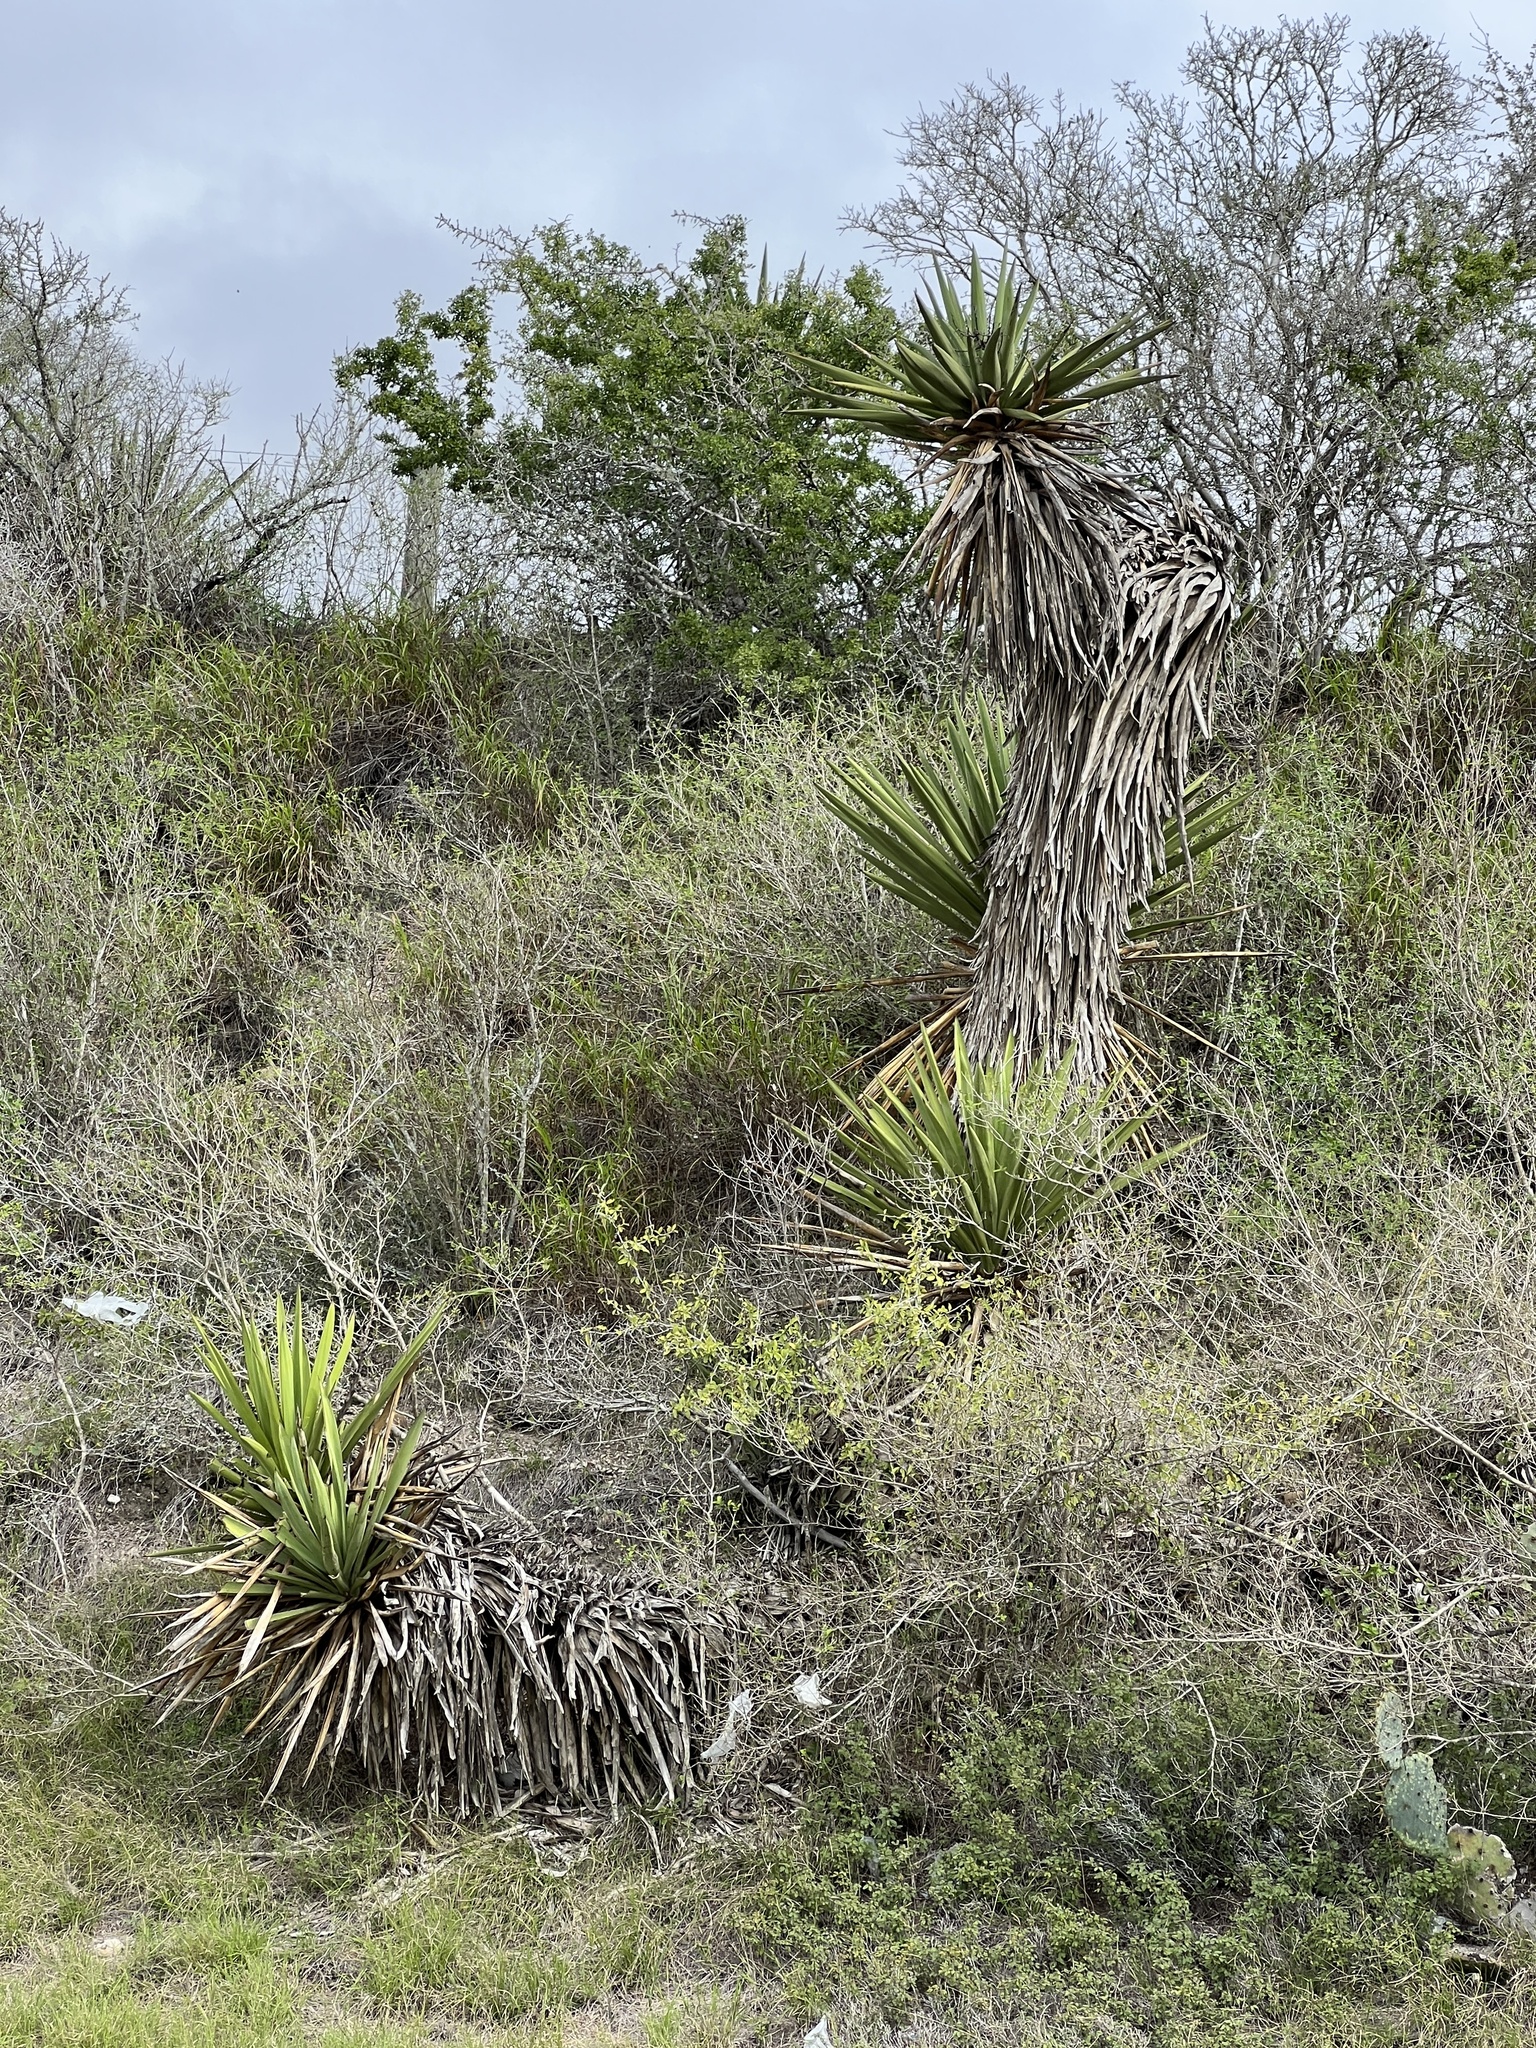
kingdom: Plantae
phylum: Tracheophyta
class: Liliopsida
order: Asparagales
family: Asparagaceae
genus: Yucca
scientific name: Yucca treculiana
